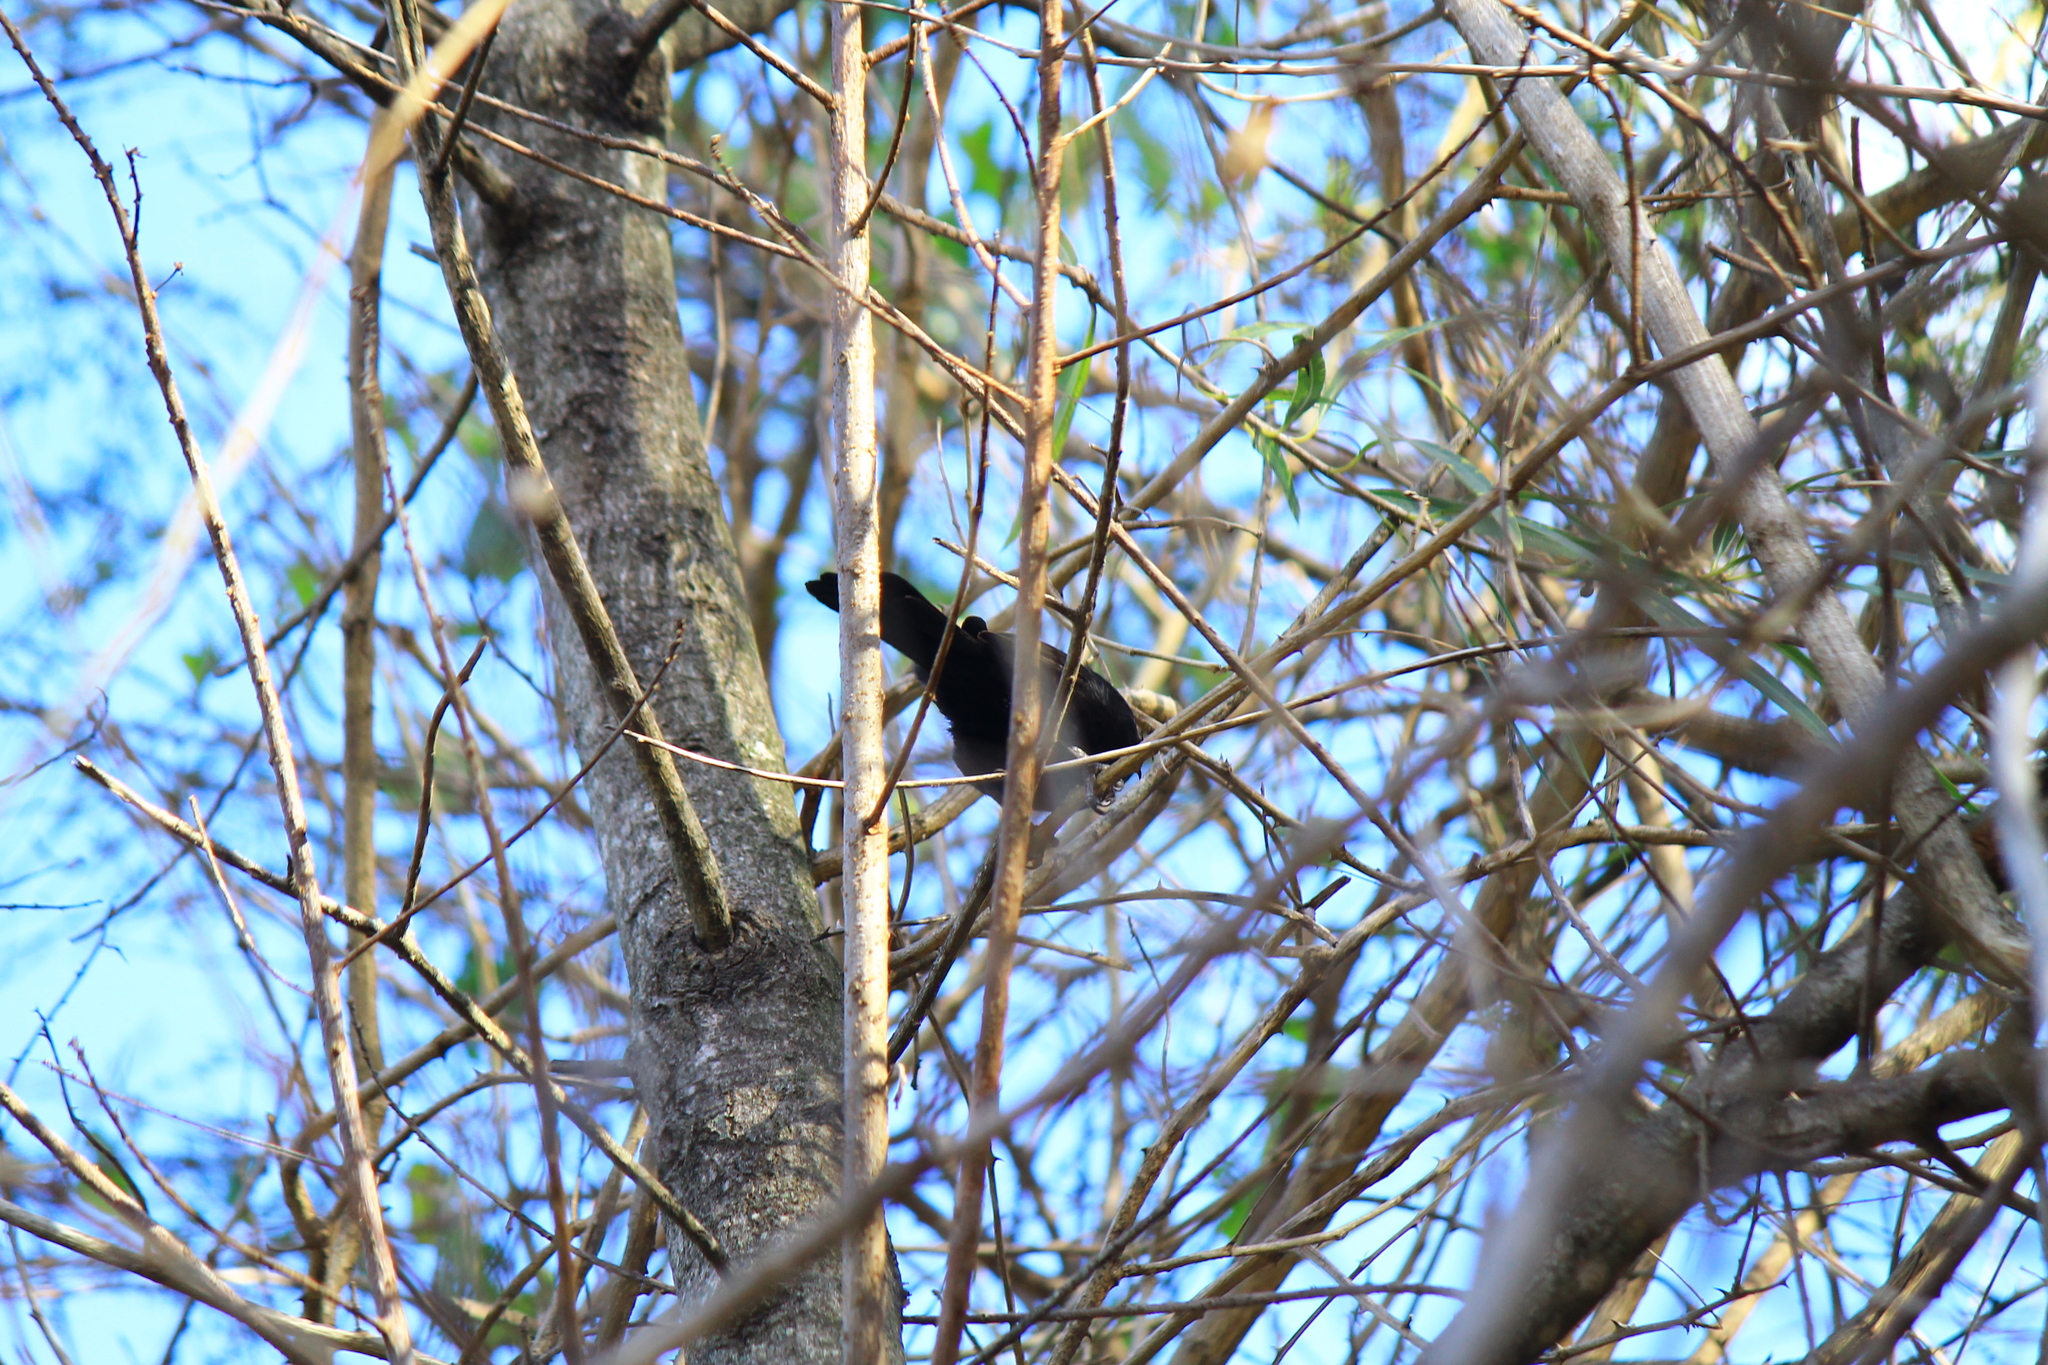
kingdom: Animalia
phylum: Chordata
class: Aves
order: Passeriformes
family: Icteridae
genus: Icterus
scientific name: Icterus cayanensis
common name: Epaulet oriole
